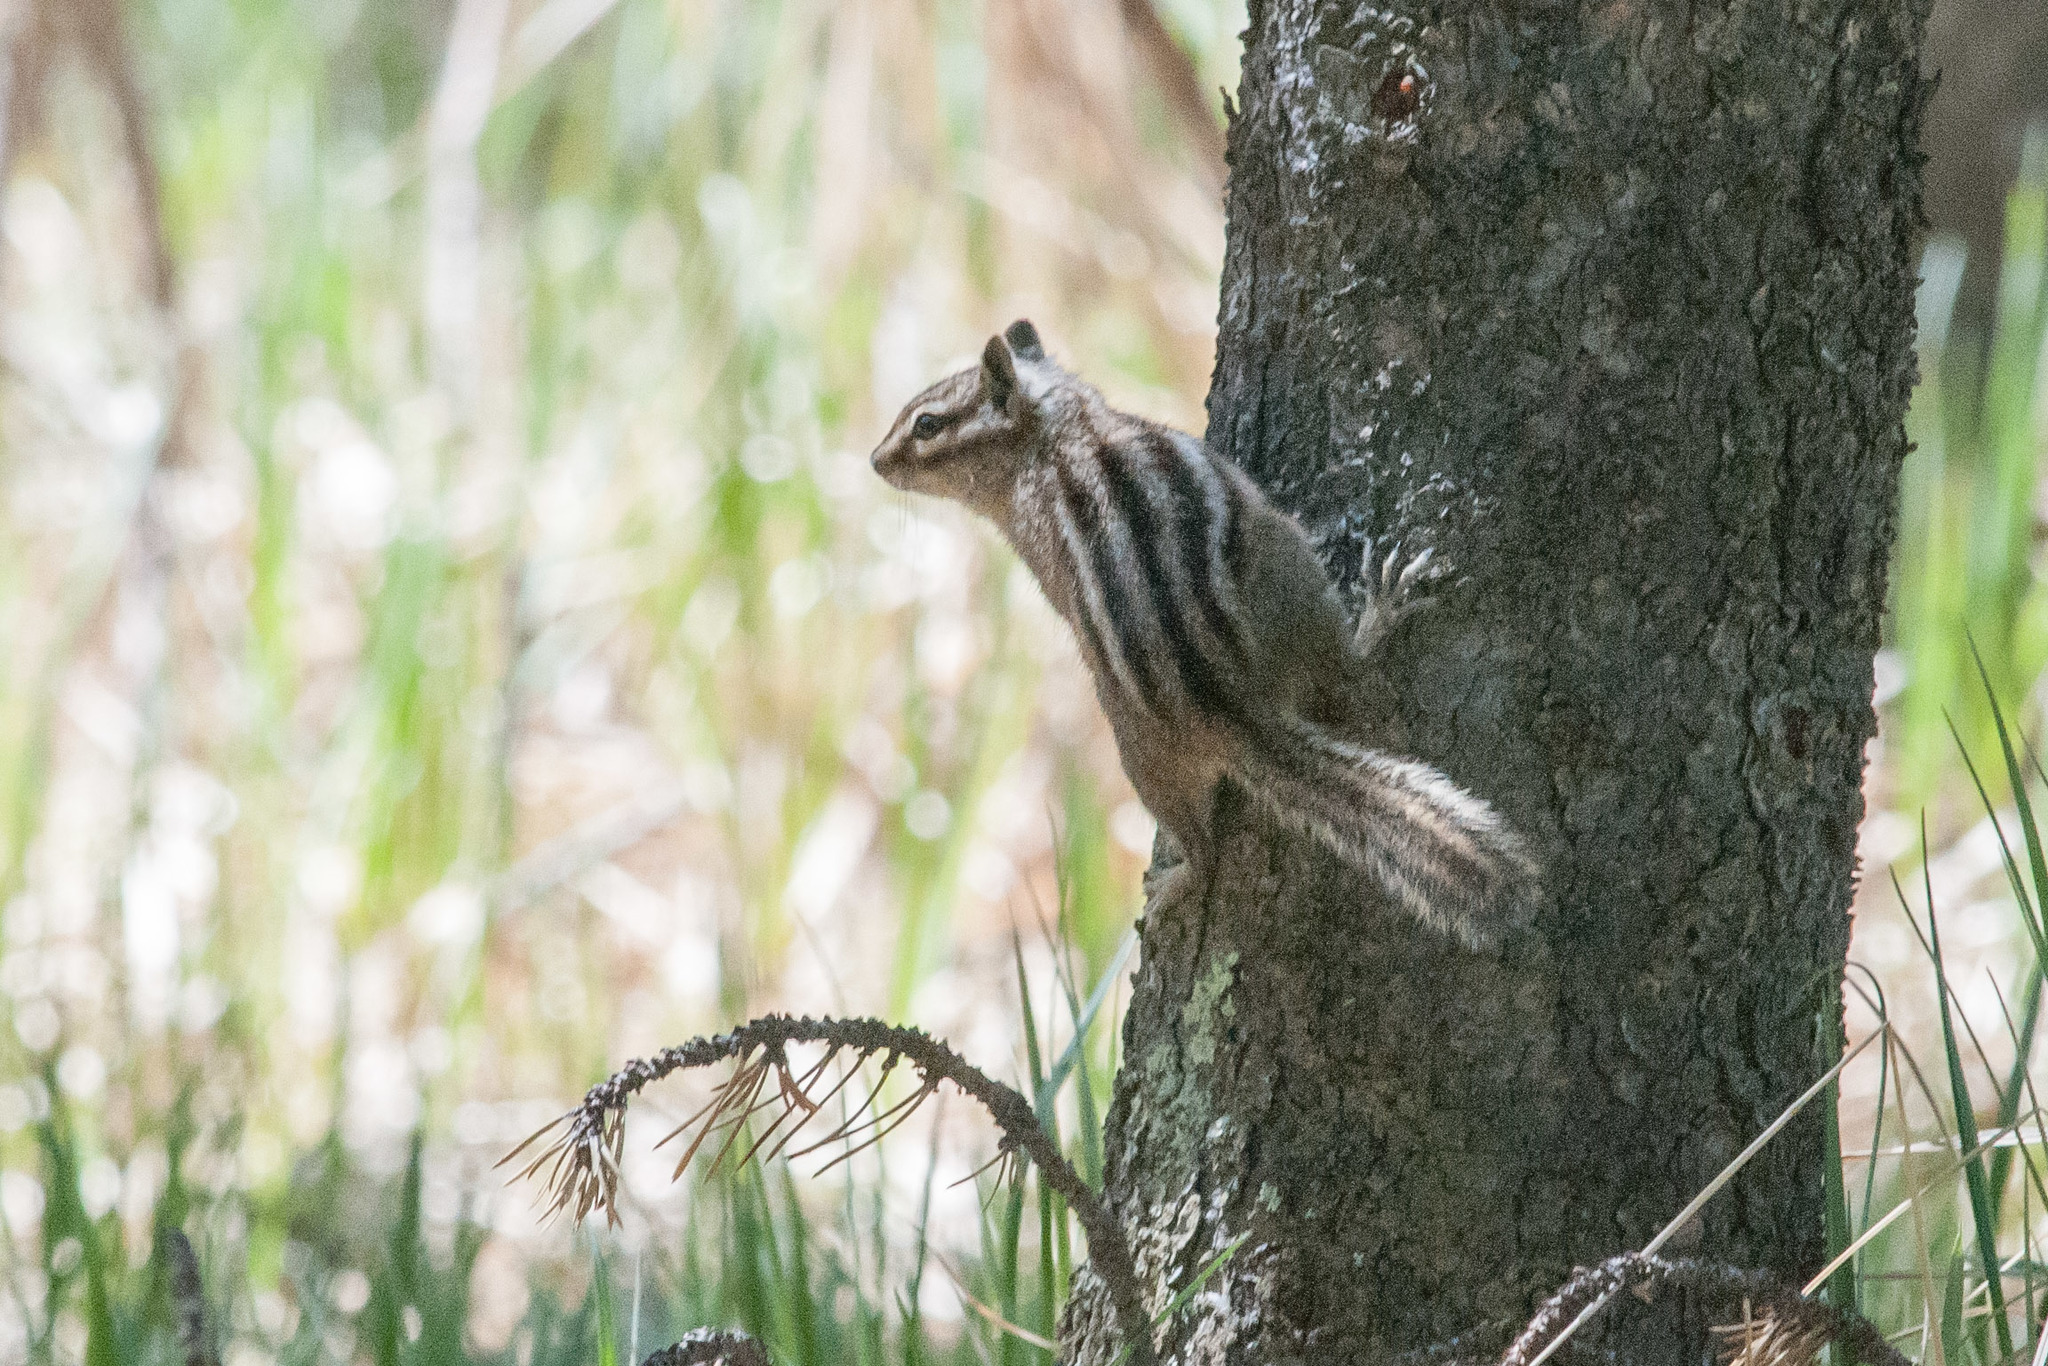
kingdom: Animalia
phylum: Chordata
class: Mammalia
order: Rodentia
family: Sciuridae
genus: Tamias
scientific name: Tamias minimus
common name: Least chipmunk
